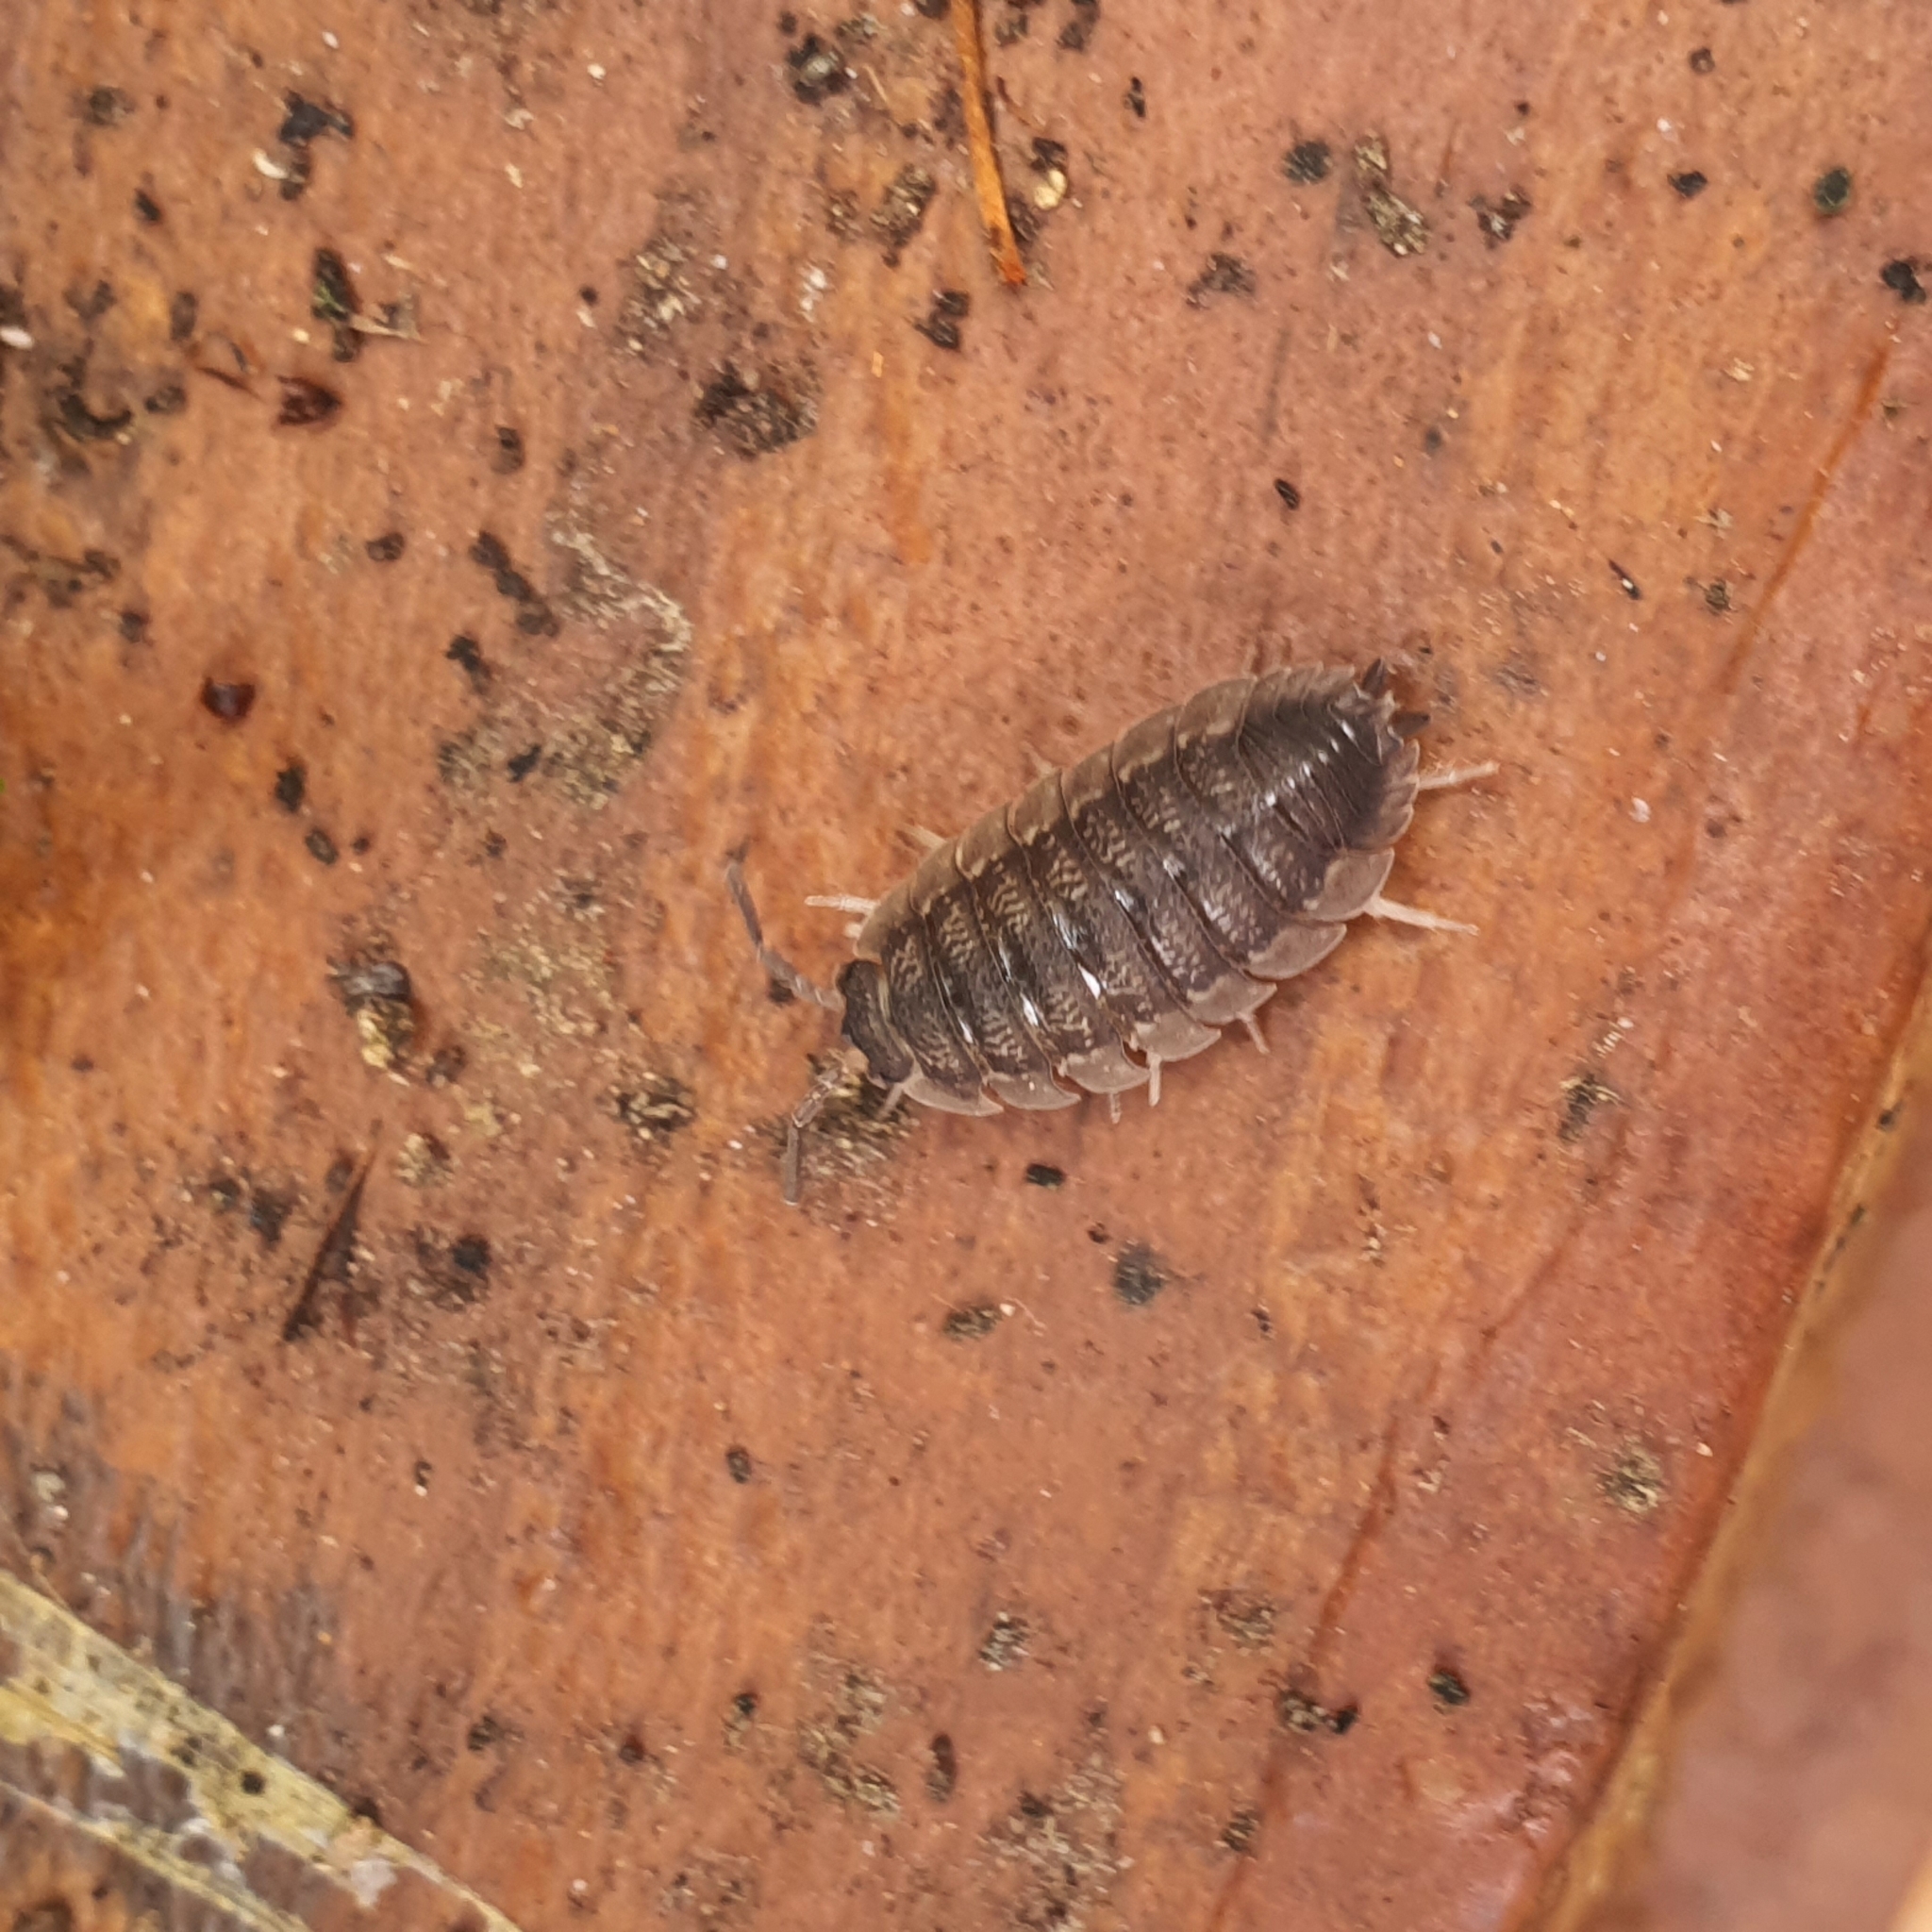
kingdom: Animalia
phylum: Arthropoda
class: Malacostraca
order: Isopoda
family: Porcellionidae
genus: Porcellio
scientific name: Porcellio scaber
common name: Common rough woodlouse
